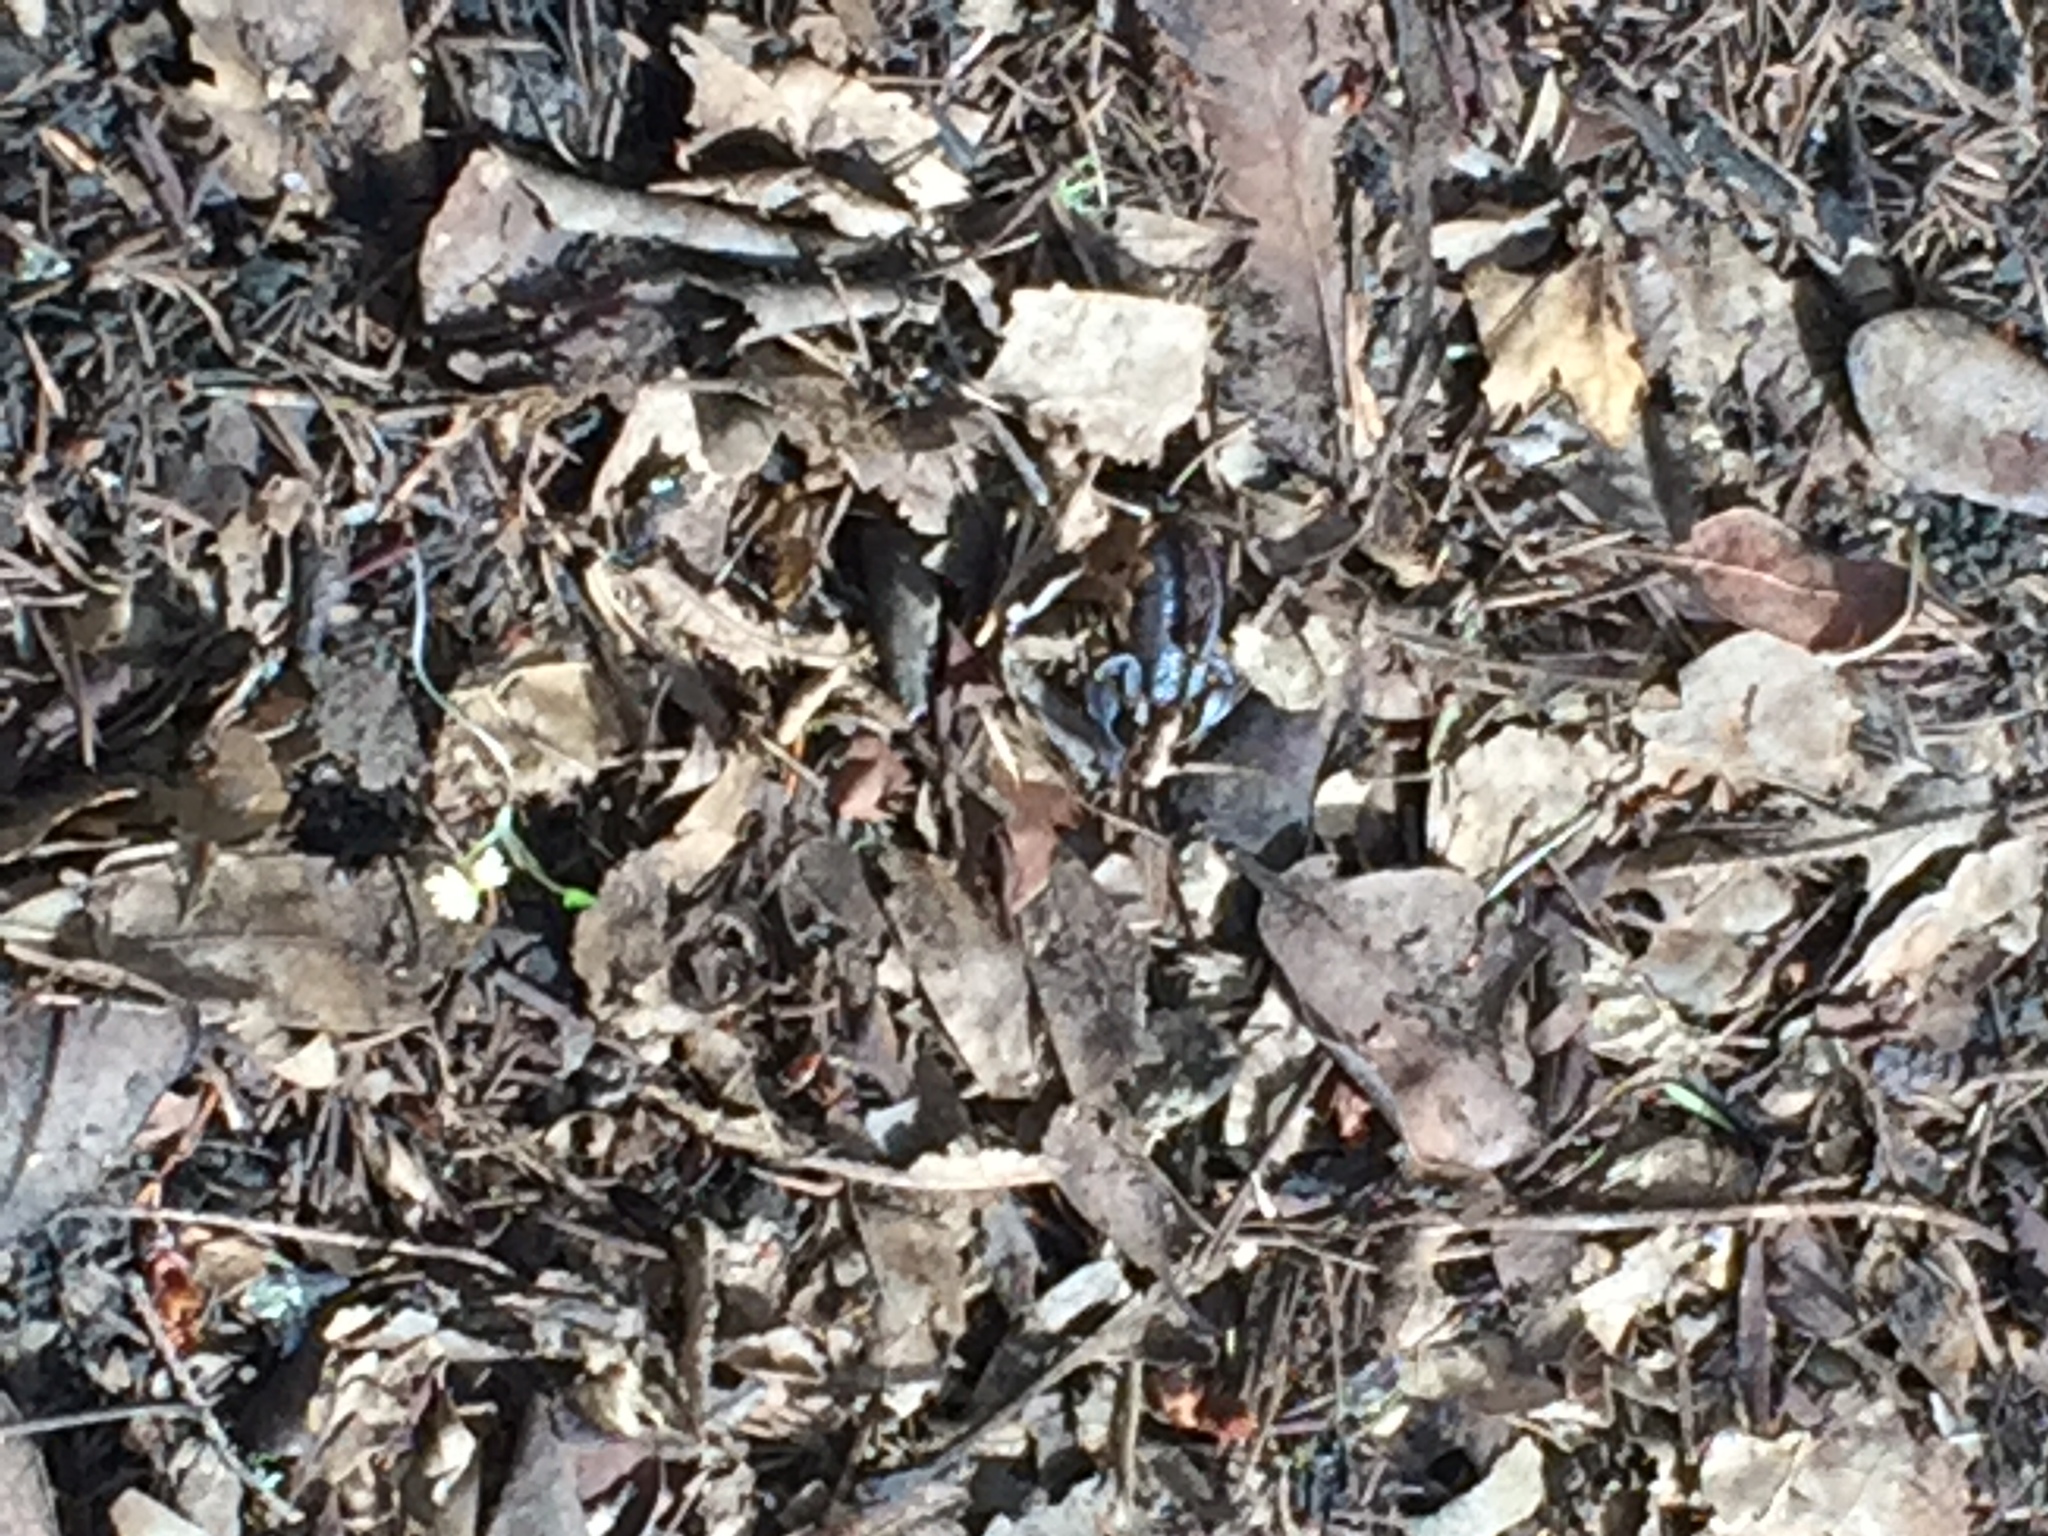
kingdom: Animalia
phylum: Arthropoda
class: Arachnida
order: Scorpiones
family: Chactidae
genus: Uroctonus
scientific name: Uroctonus mordax
